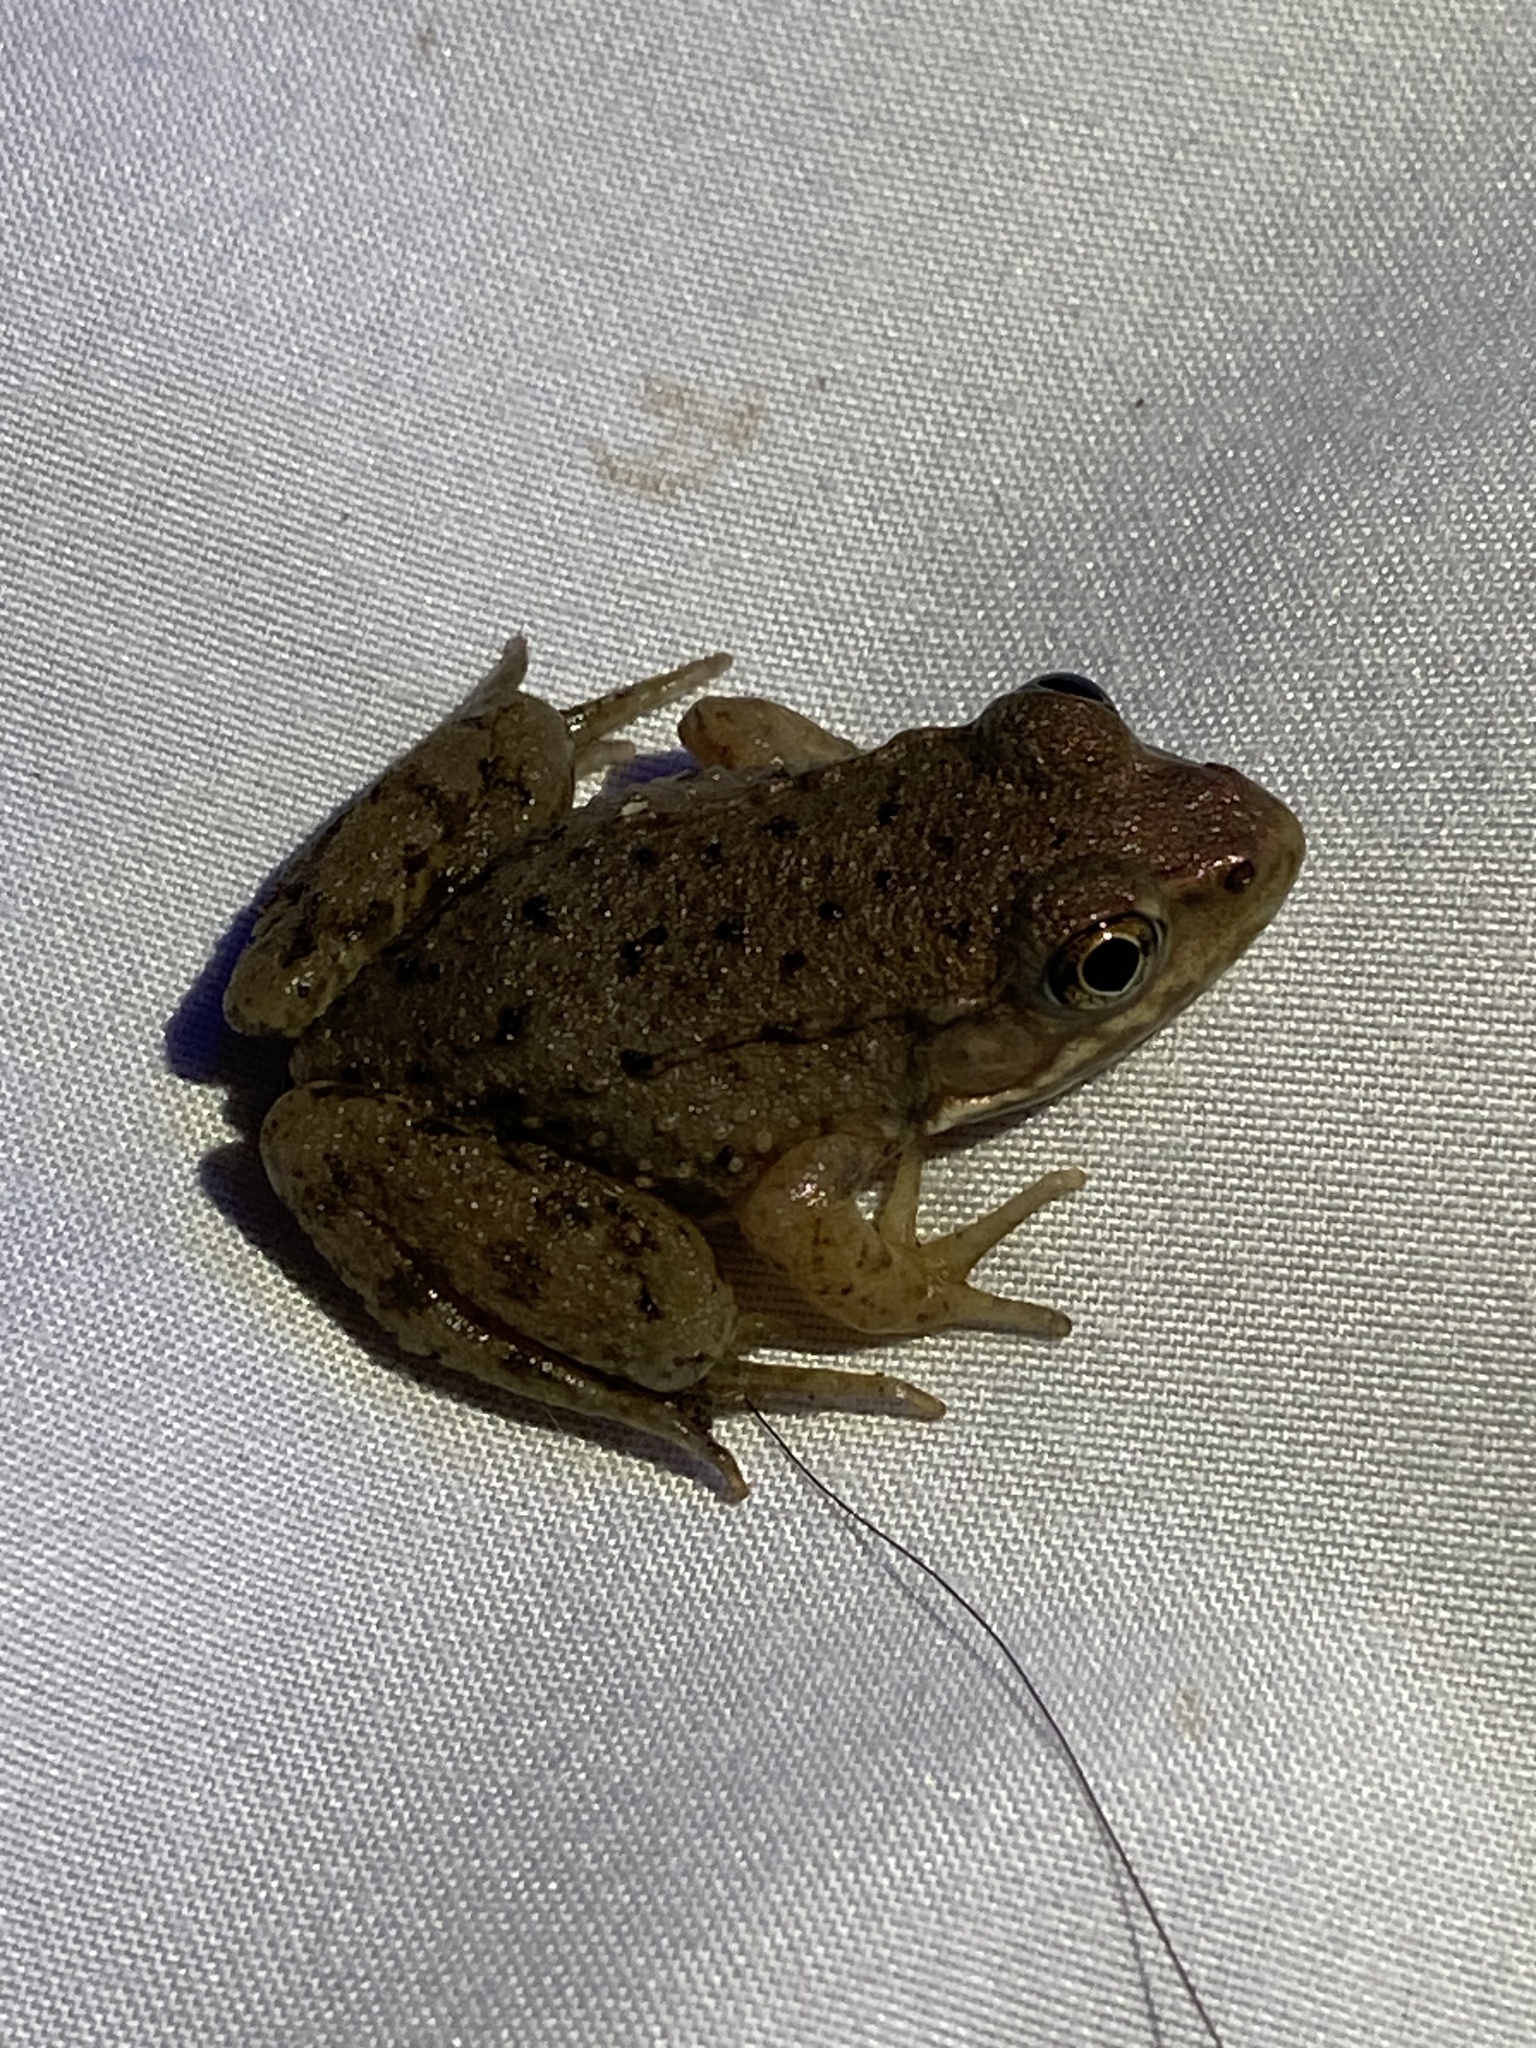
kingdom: Animalia
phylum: Chordata
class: Amphibia
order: Anura
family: Ranidae
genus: Lithobates
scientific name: Lithobates clamitans
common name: Green frog
